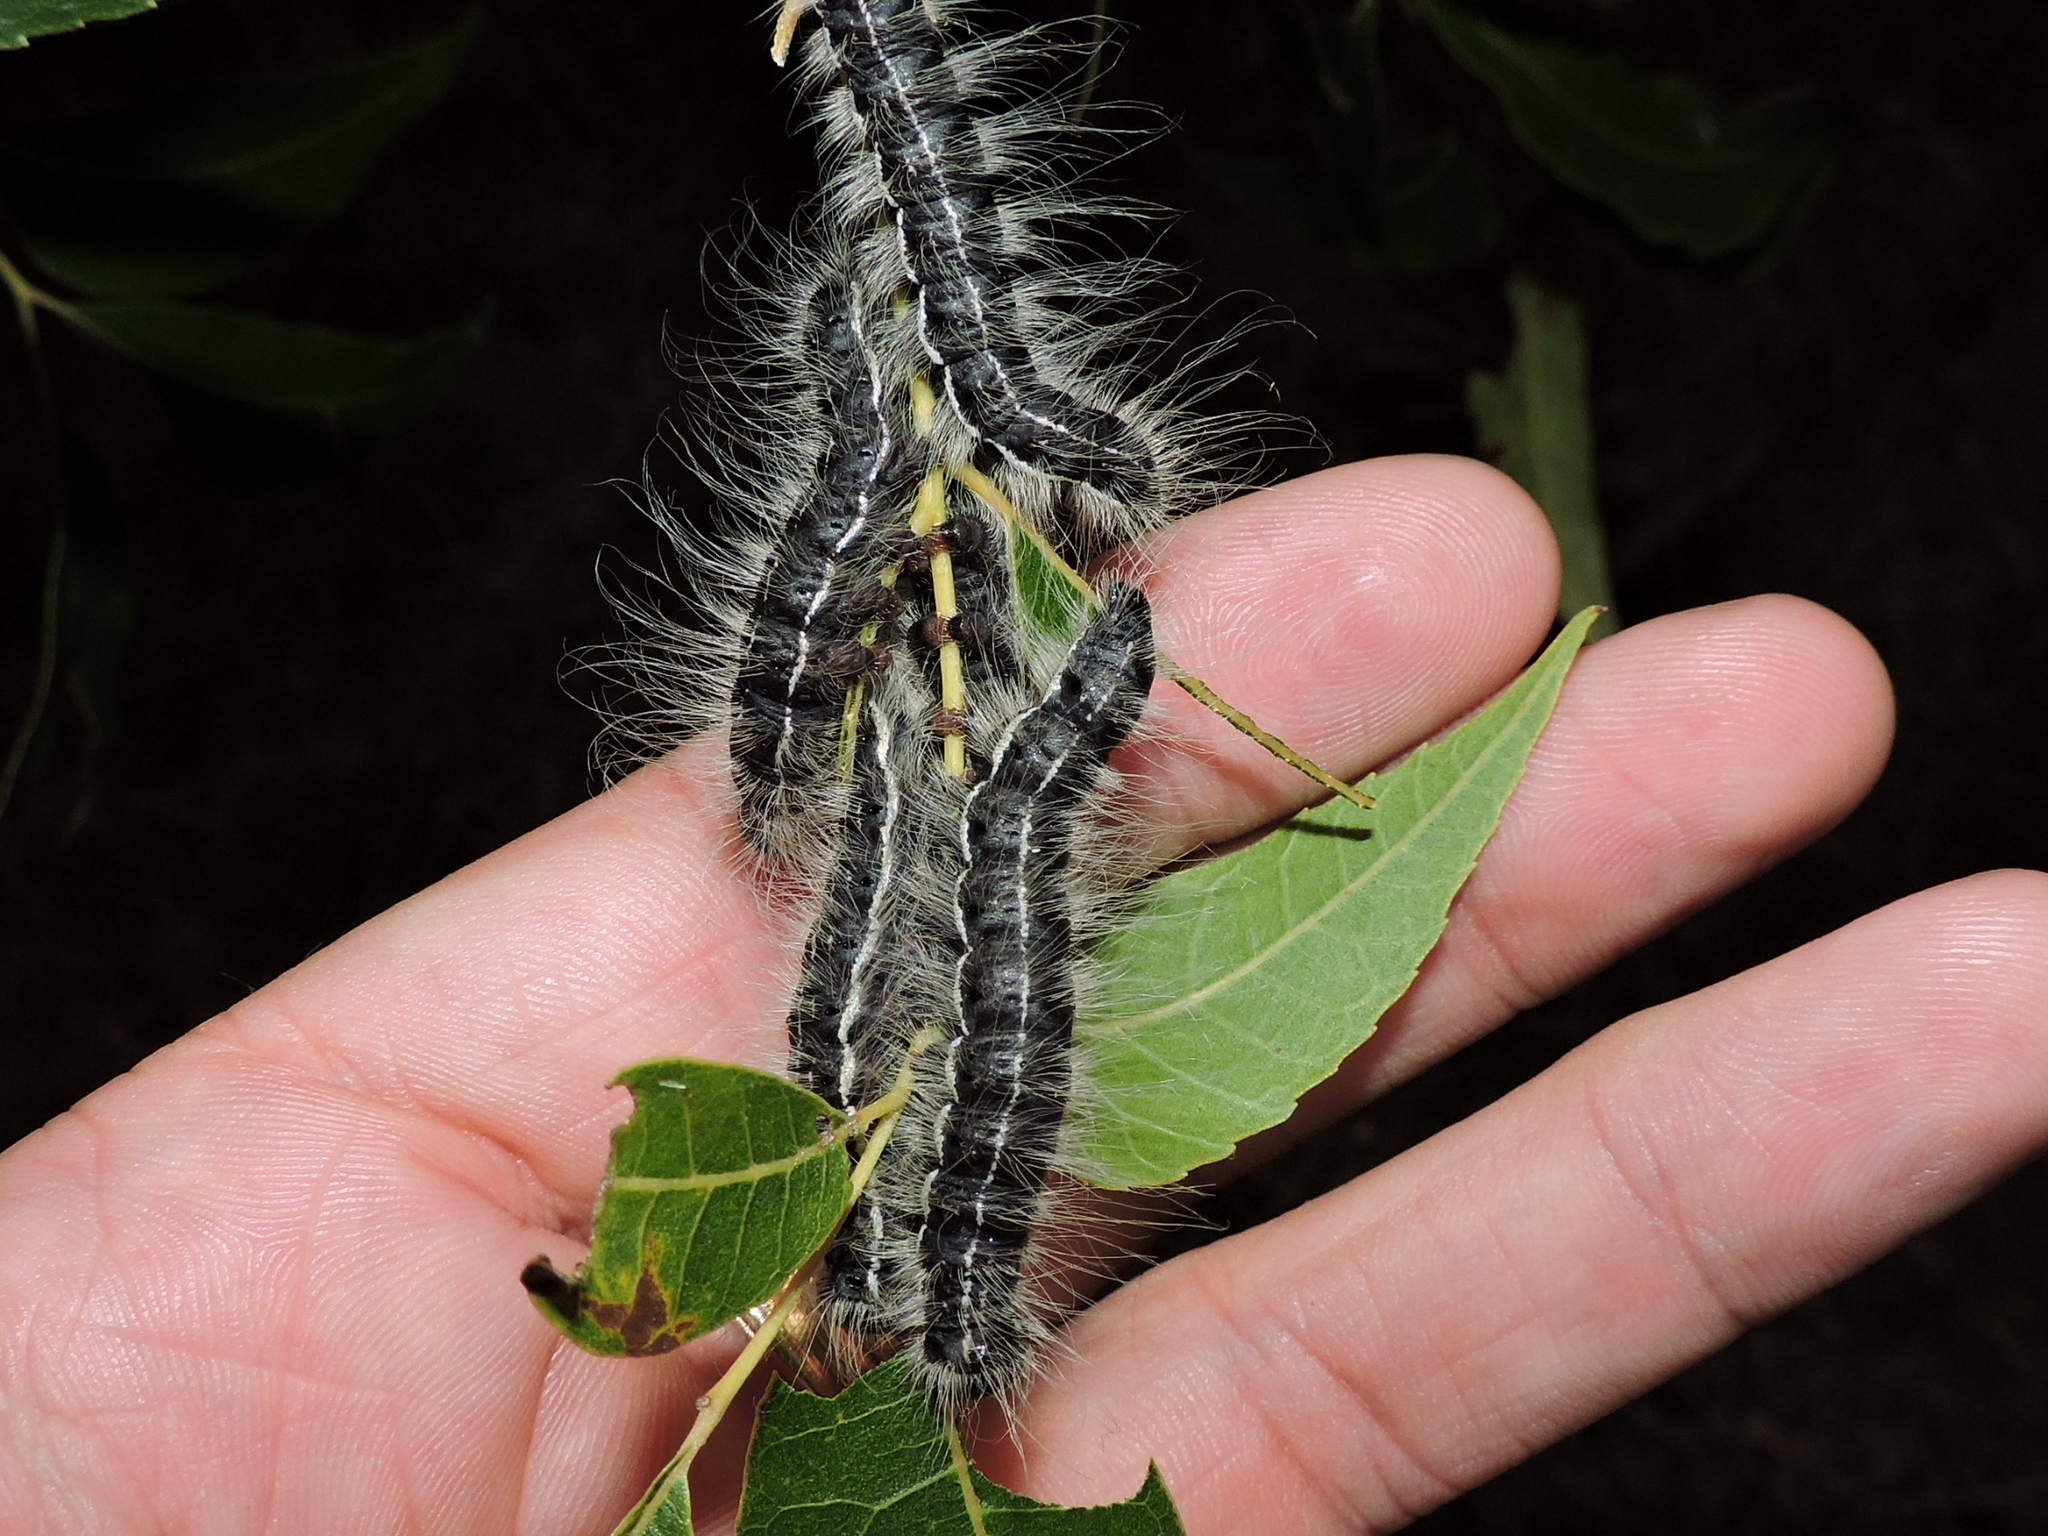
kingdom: Animalia
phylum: Arthropoda
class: Insecta
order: Lepidoptera
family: Notodontidae
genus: Datana
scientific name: Datana integerrima
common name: Walnut caterpillar
